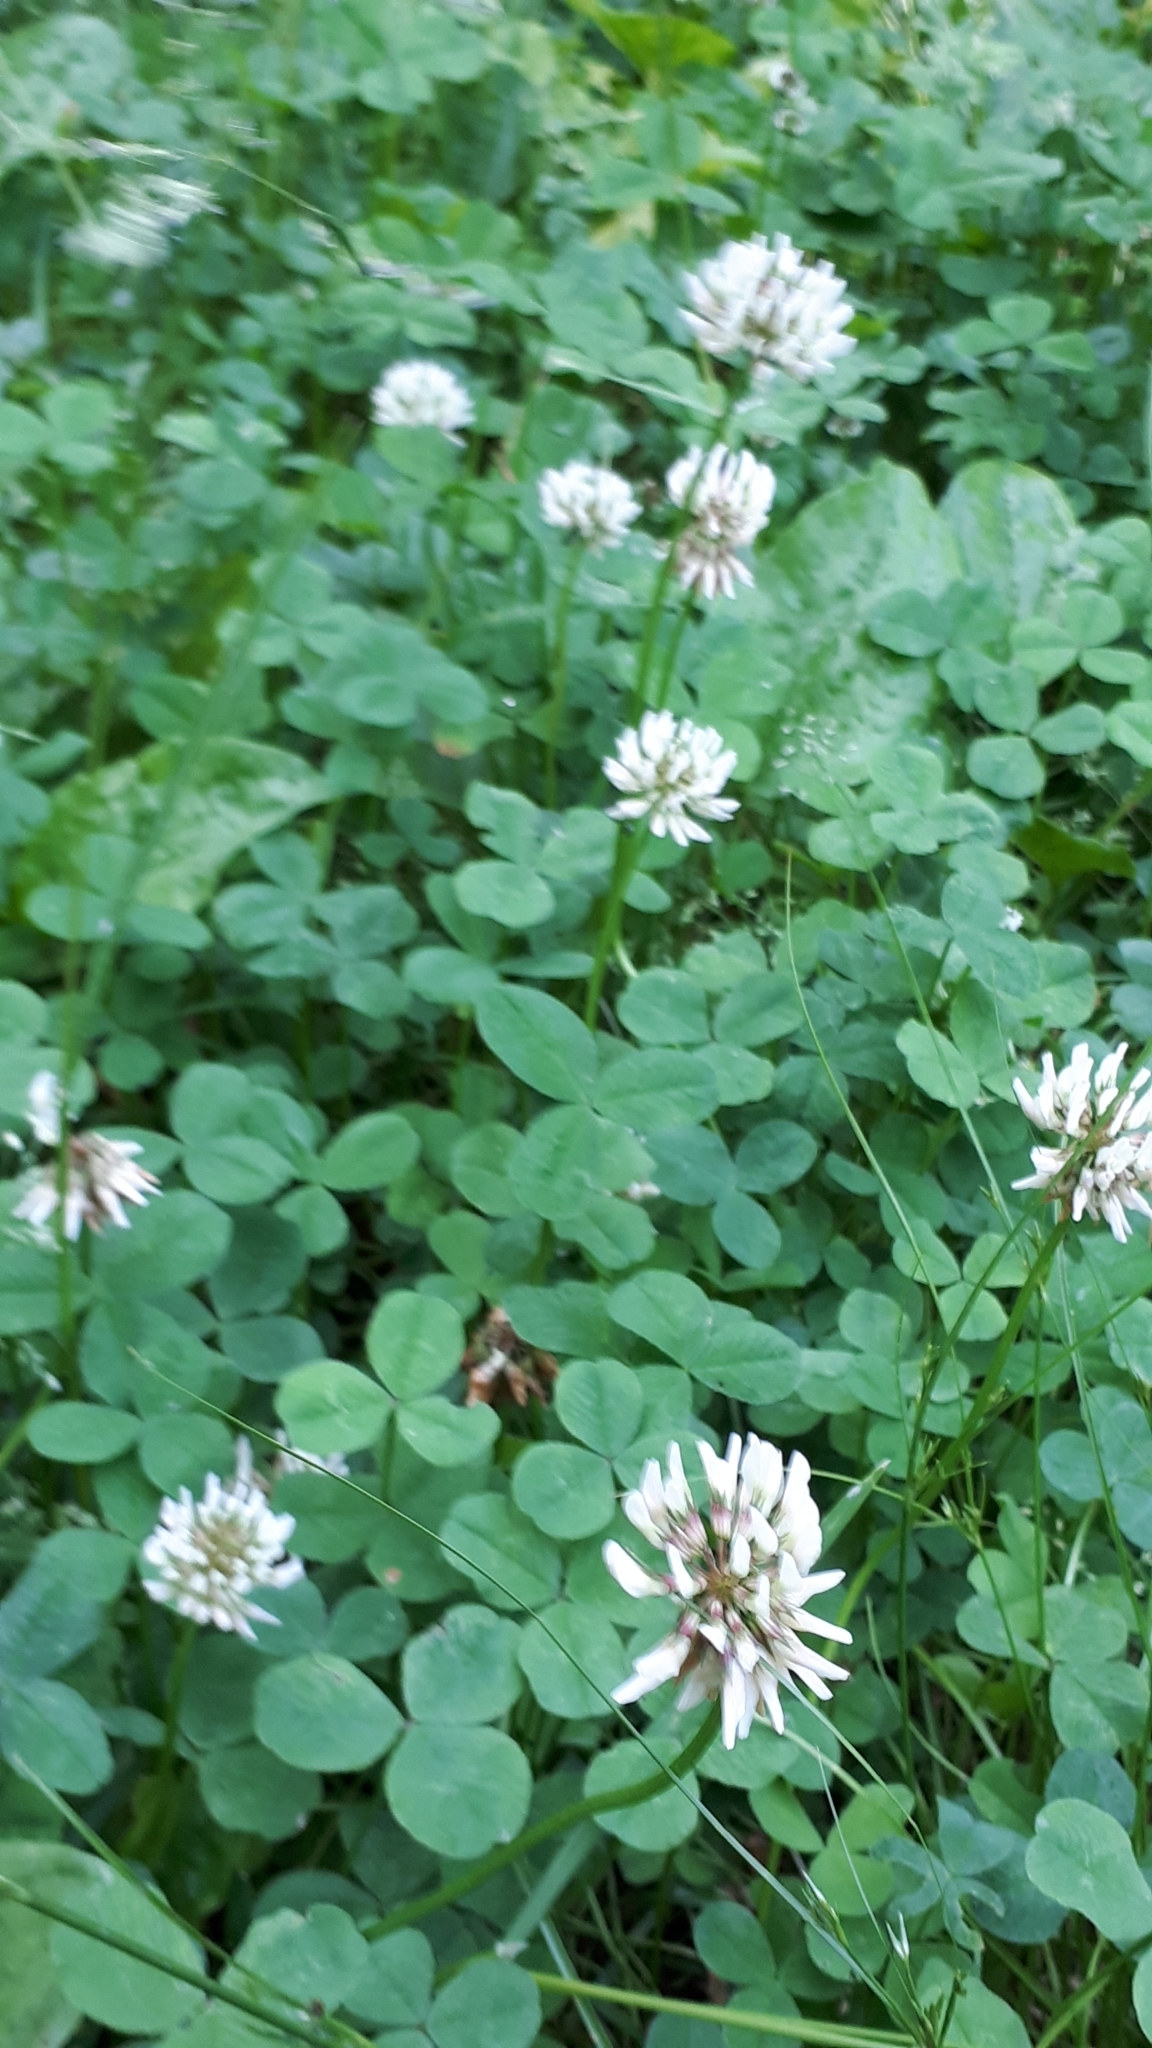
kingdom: Plantae
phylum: Tracheophyta
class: Magnoliopsida
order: Fabales
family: Fabaceae
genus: Trifolium
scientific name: Trifolium repens
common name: White clover
